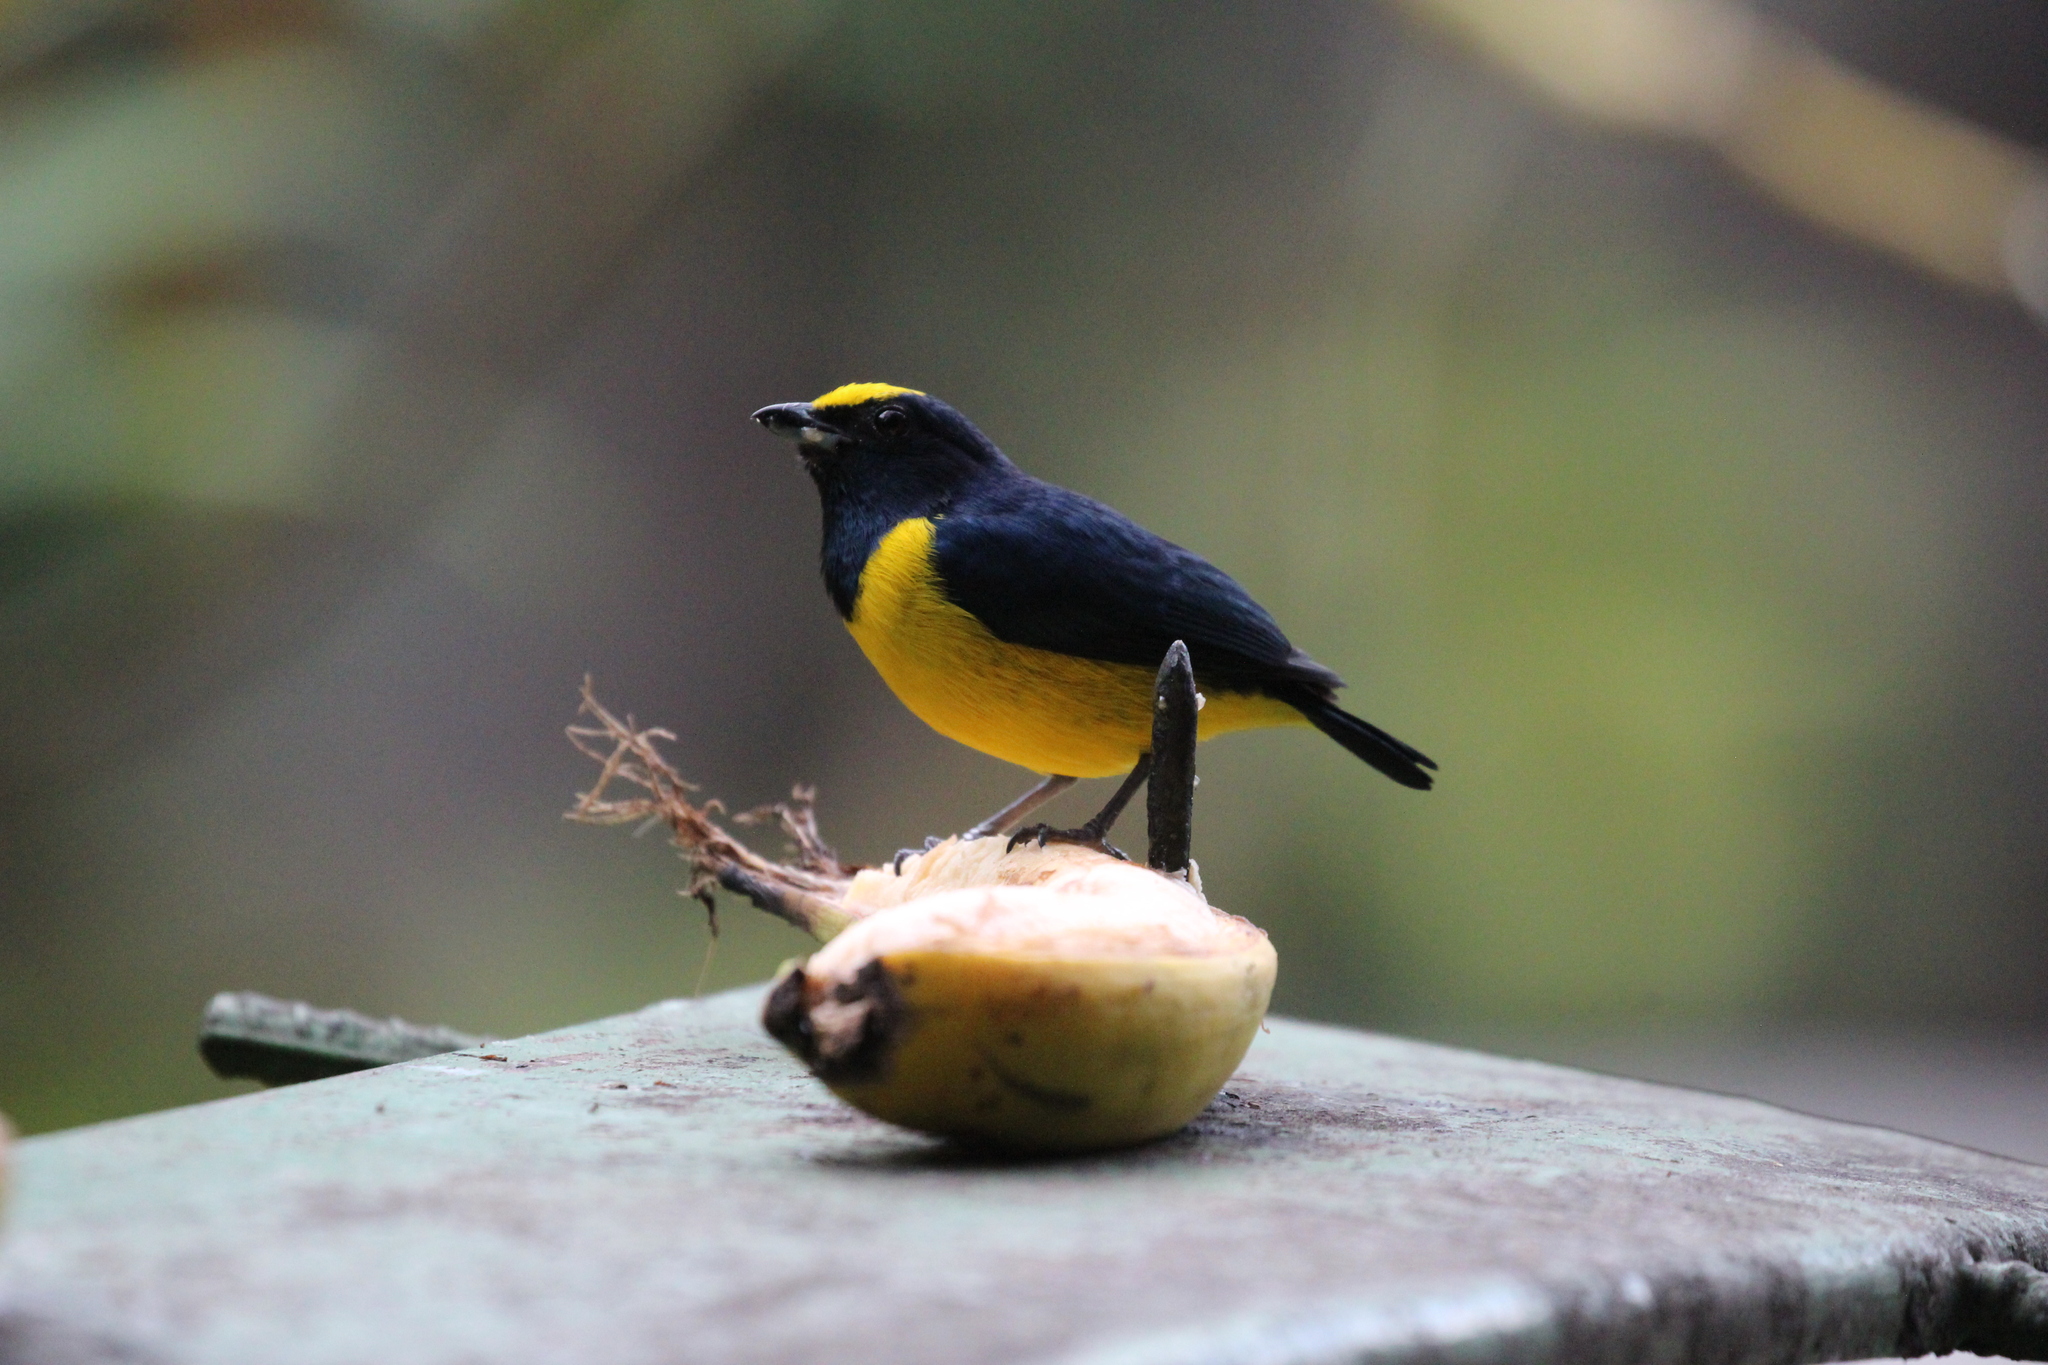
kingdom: Animalia
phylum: Chordata
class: Aves
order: Passeriformes
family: Fringillidae
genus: Euphonia
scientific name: Euphonia imitans
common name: Spot-crowned euphonia
